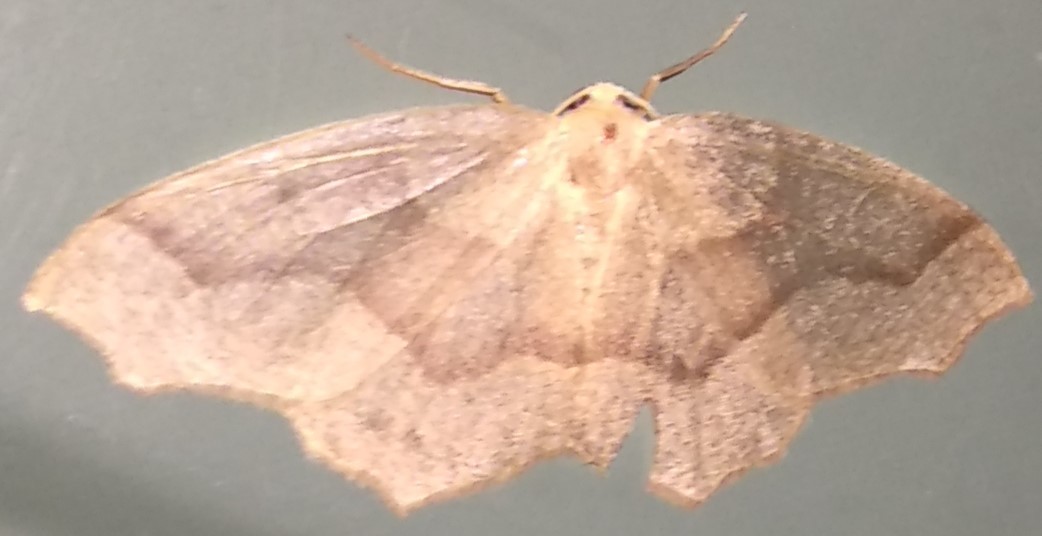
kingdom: Animalia
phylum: Arthropoda
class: Insecta
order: Lepidoptera
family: Geometridae
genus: Lambdina
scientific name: Lambdina fiscellaria
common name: Hemlock looper
